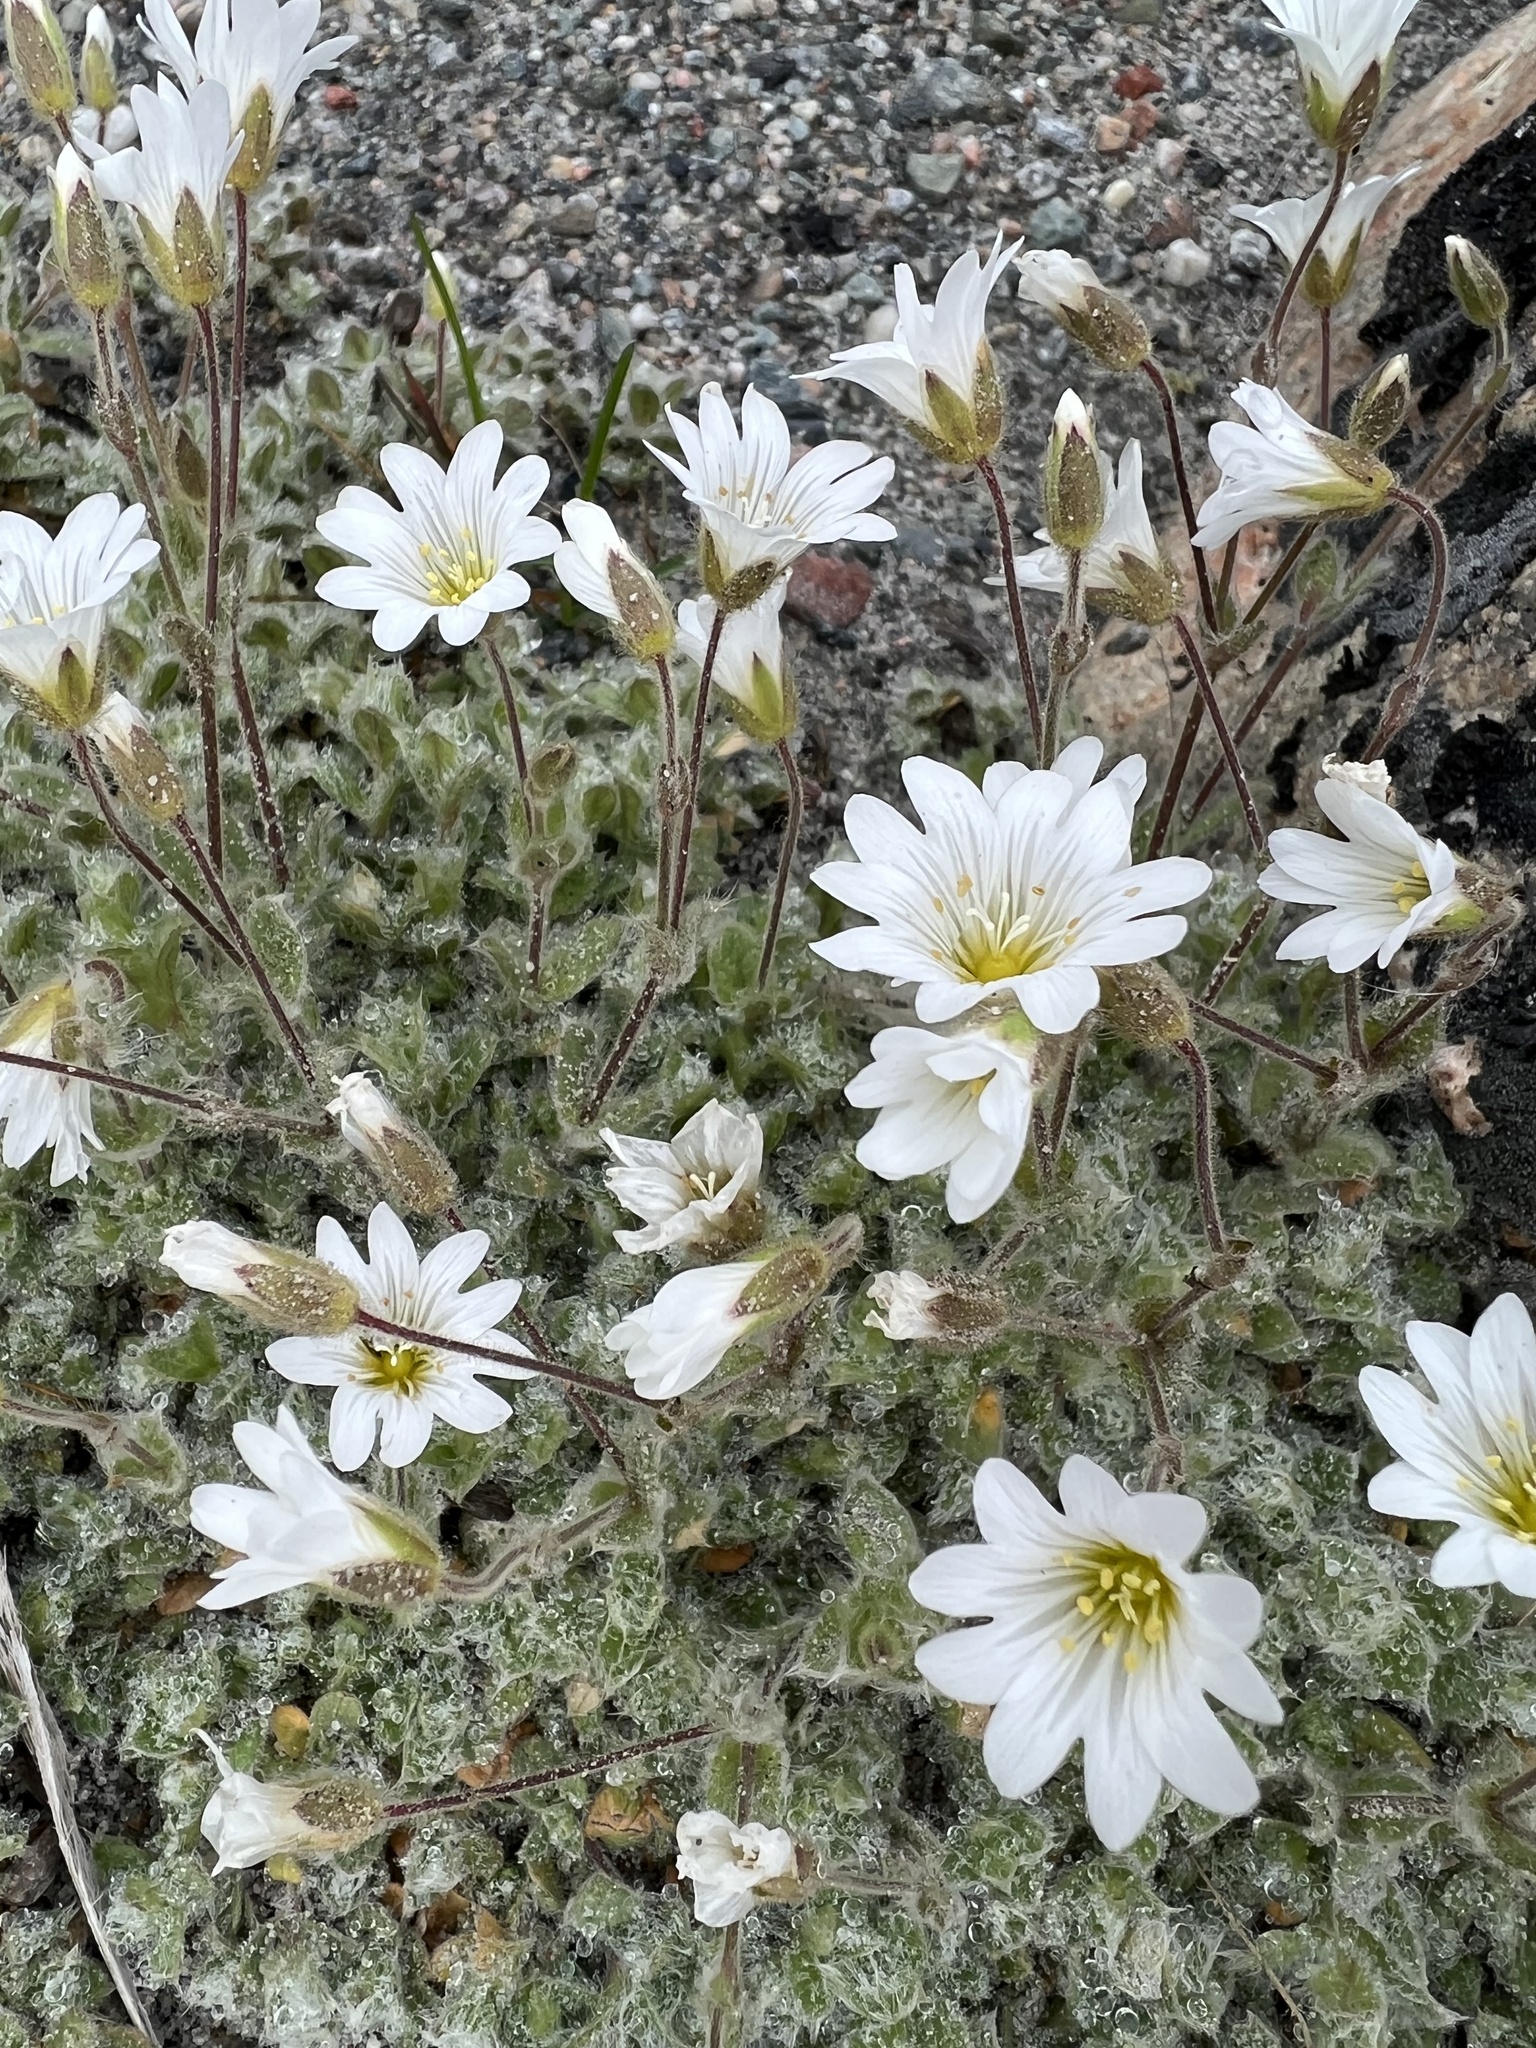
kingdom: Plantae
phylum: Tracheophyta
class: Magnoliopsida
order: Caryophyllales
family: Caryophyllaceae
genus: Cerastium
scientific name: Cerastium alpinum
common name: Alpine mouse-ear
